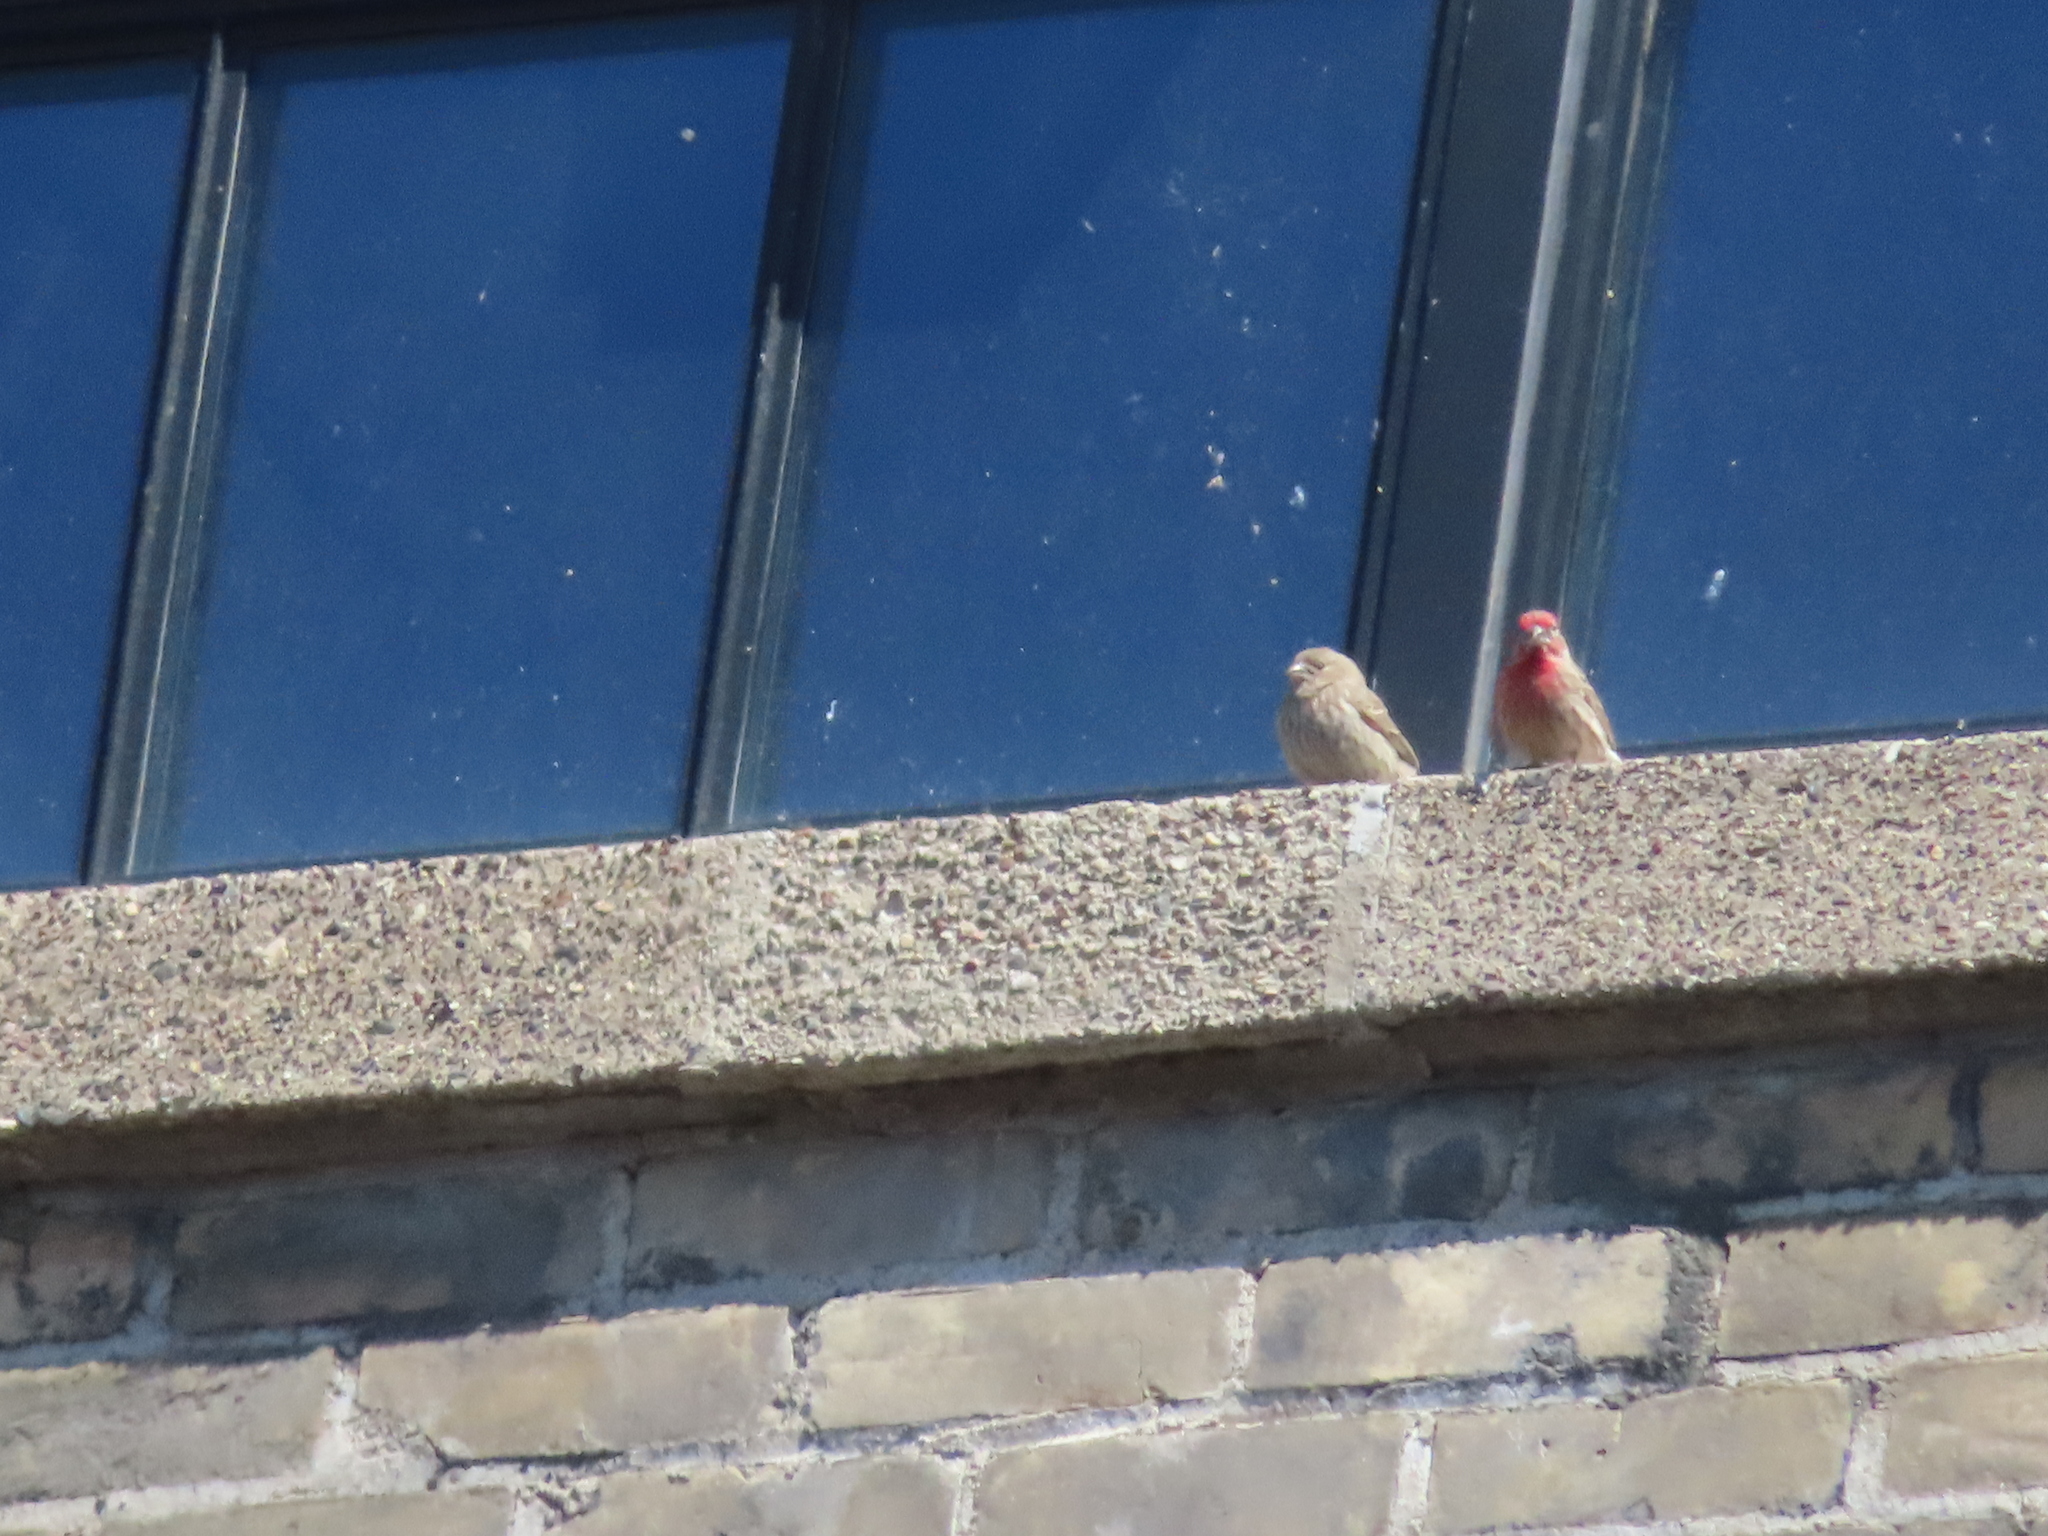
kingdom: Animalia
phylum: Chordata
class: Aves
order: Passeriformes
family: Fringillidae
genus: Haemorhous
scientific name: Haemorhous mexicanus
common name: House finch
